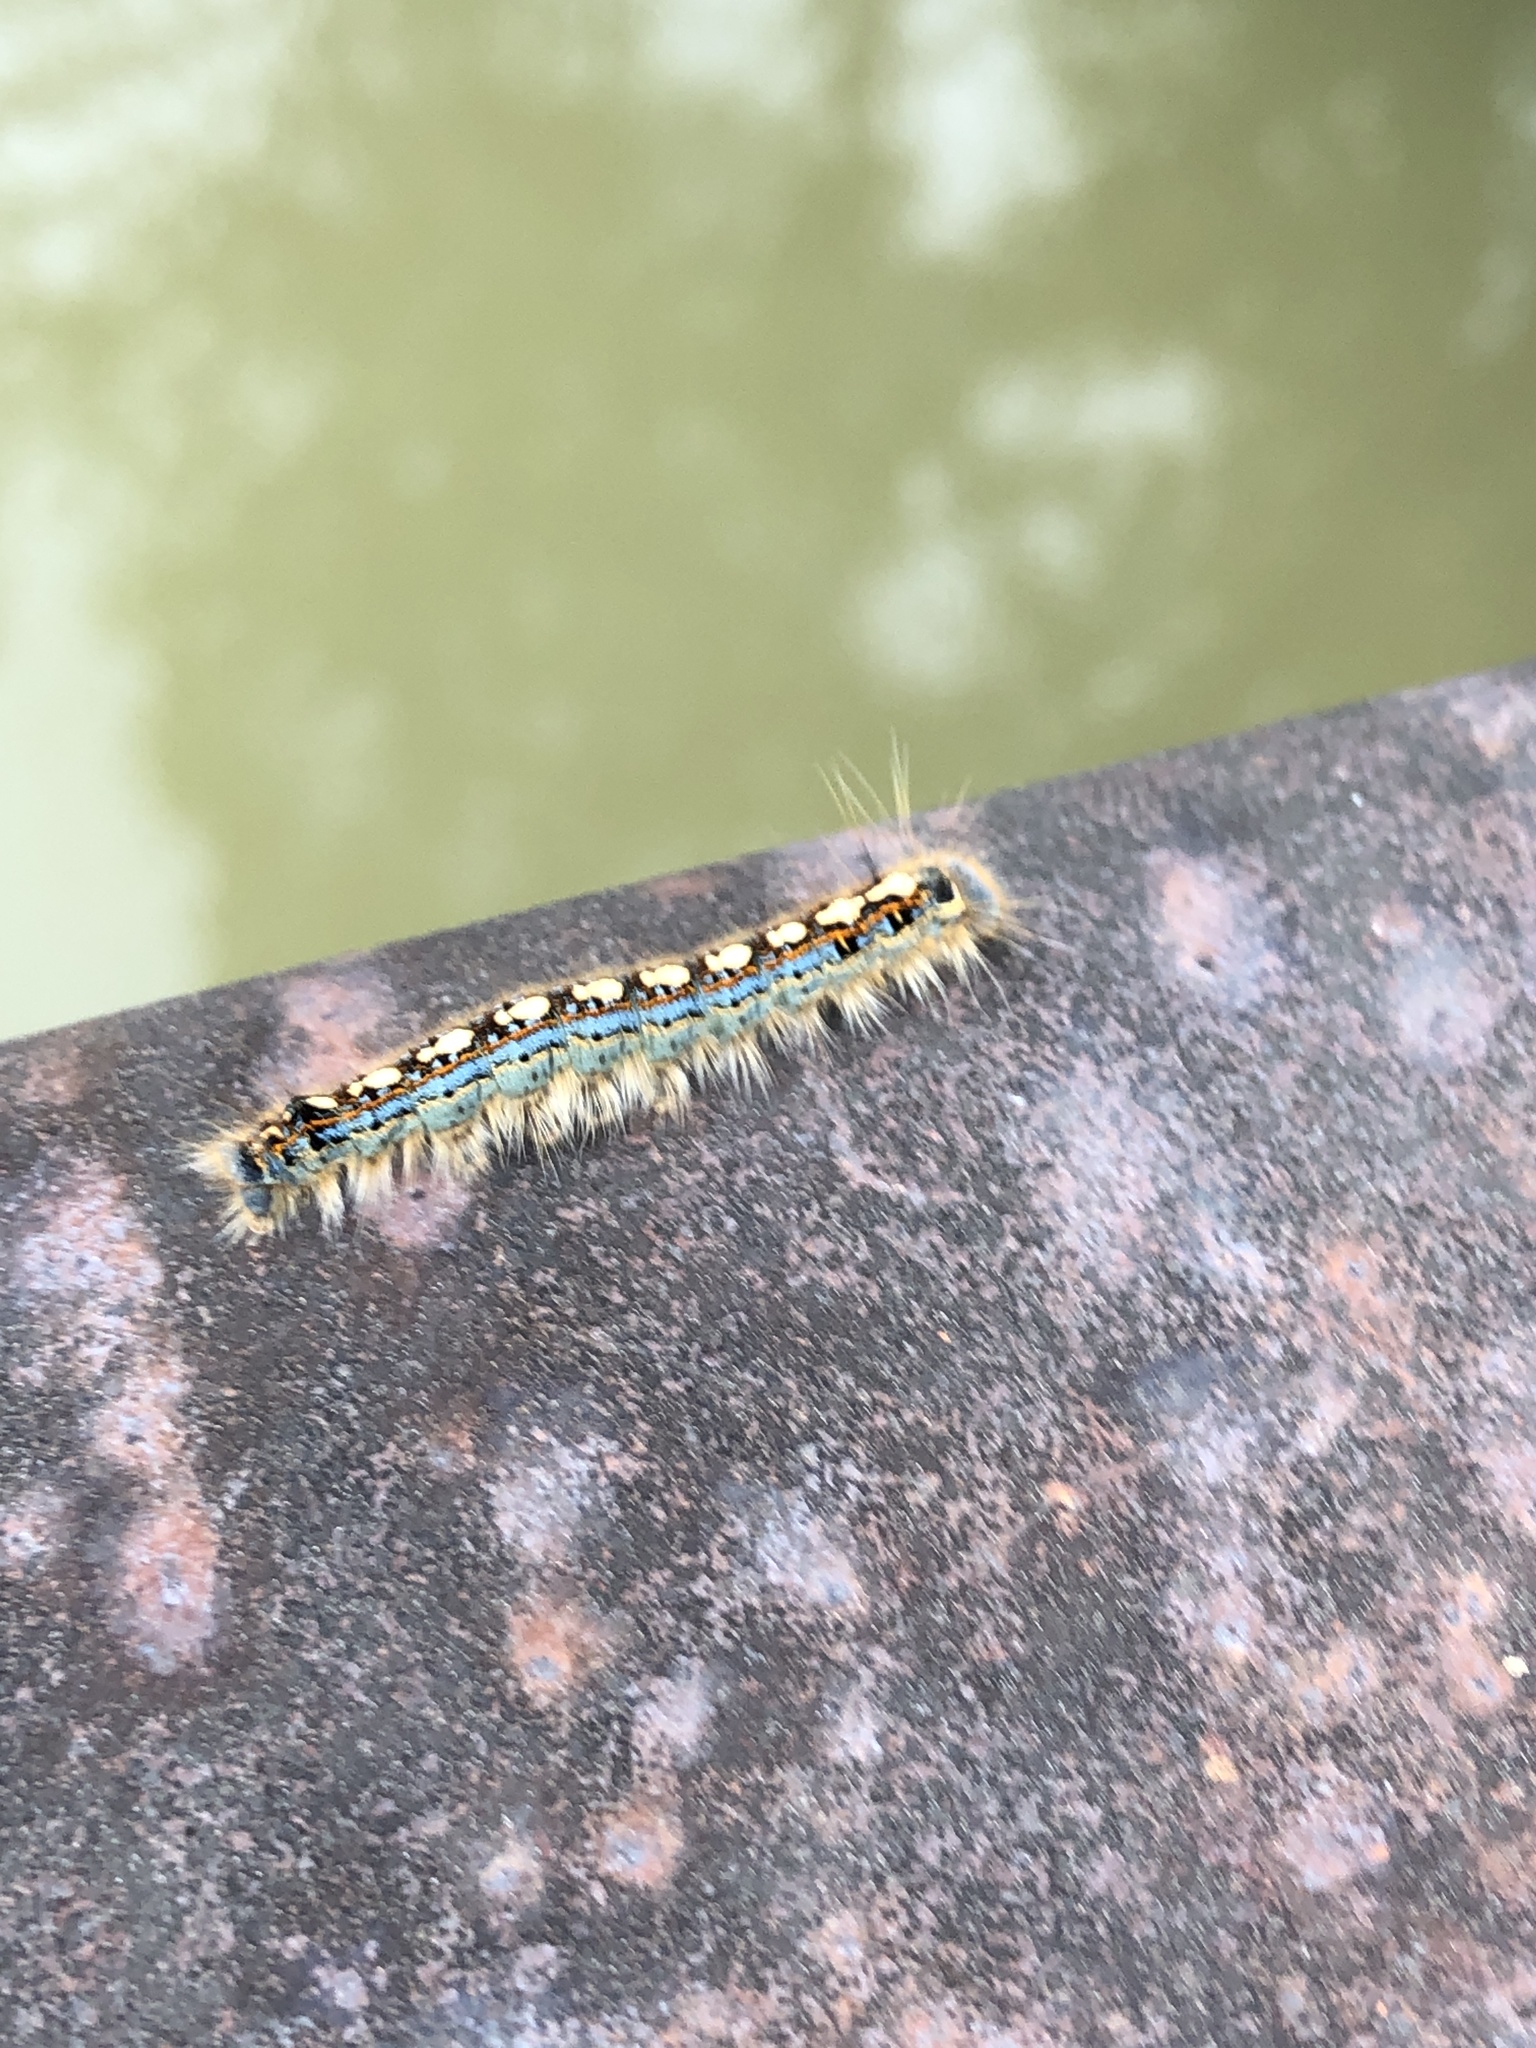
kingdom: Animalia
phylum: Arthropoda
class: Insecta
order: Lepidoptera
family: Lasiocampidae
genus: Malacosoma
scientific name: Malacosoma disstria
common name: Forest tent caterpillar
